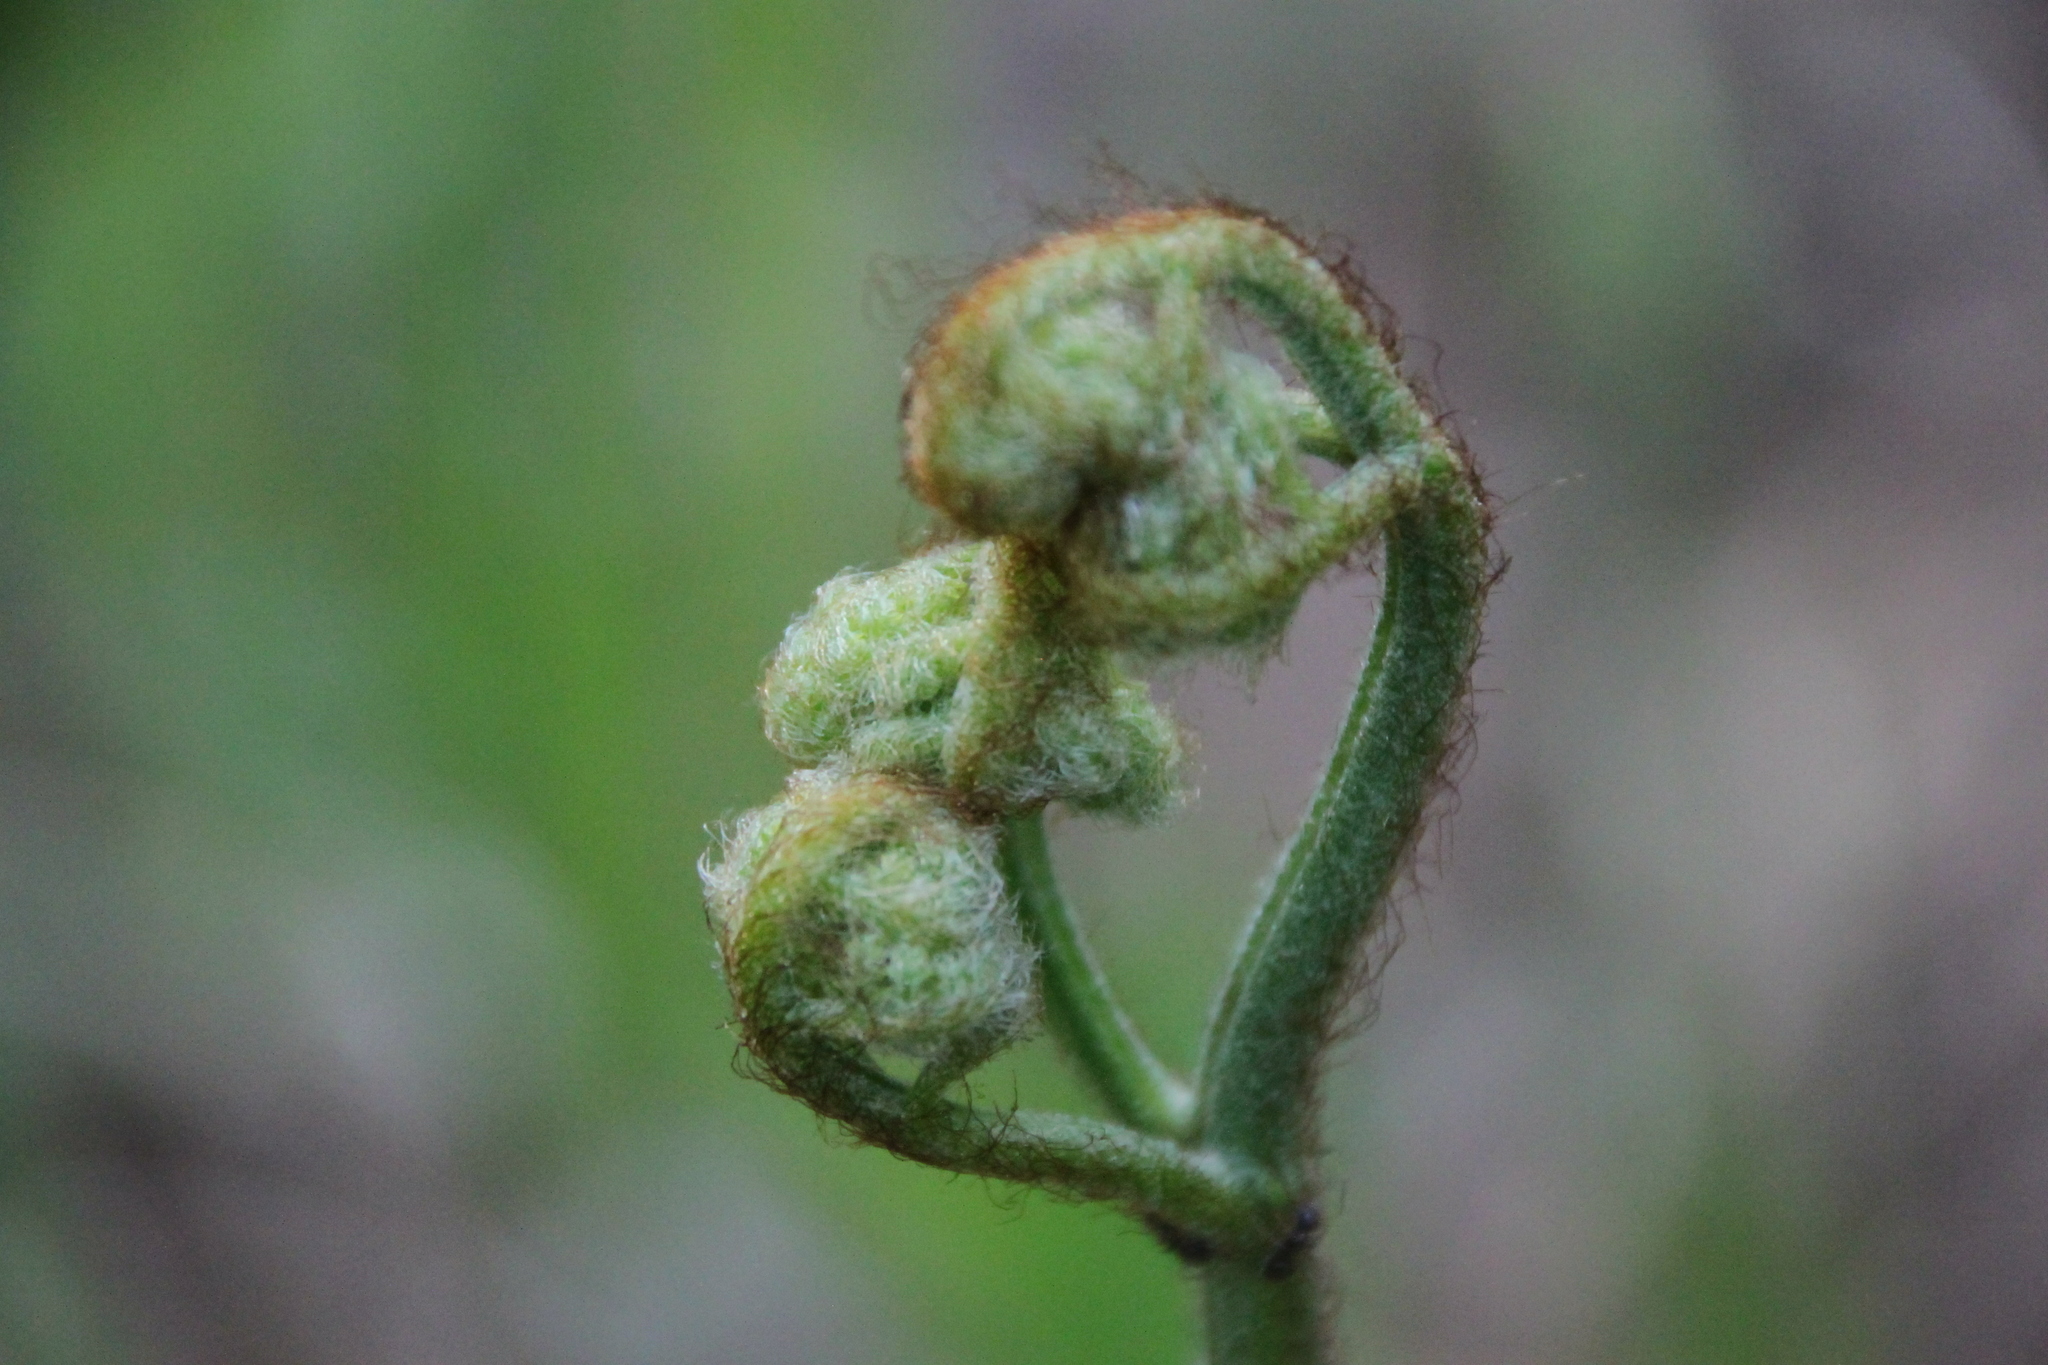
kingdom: Plantae
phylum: Tracheophyta
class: Polypodiopsida
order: Polypodiales
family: Dennstaedtiaceae
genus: Pteridium
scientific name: Pteridium aquilinum
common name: Bracken
